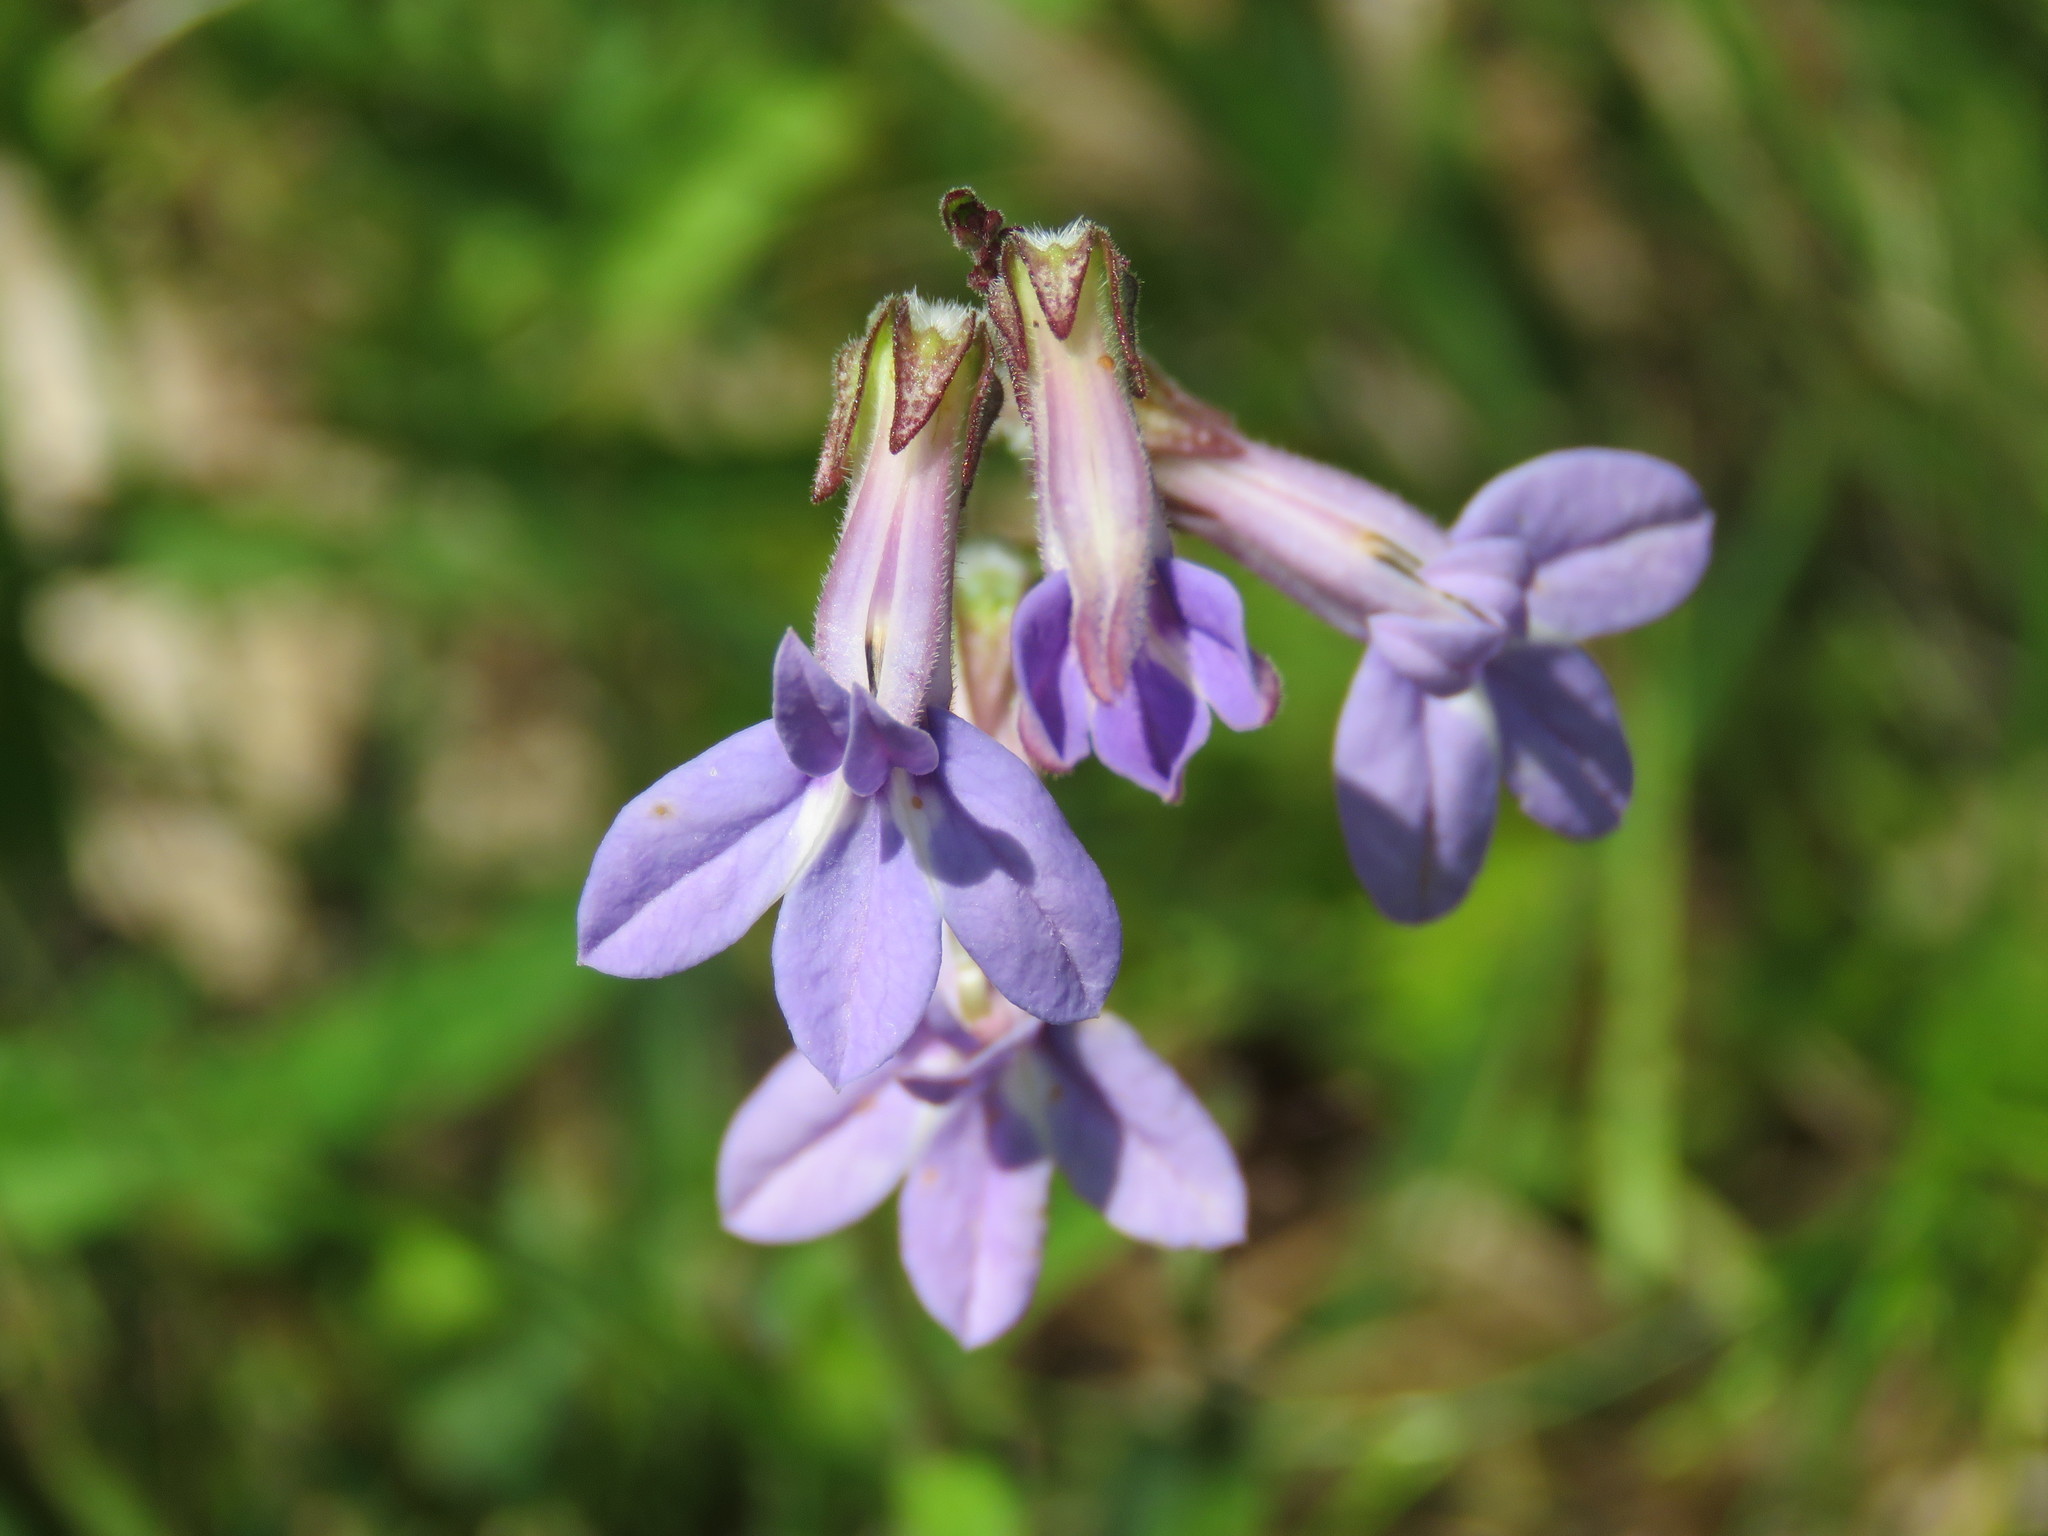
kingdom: Plantae
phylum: Tracheophyta
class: Magnoliopsida
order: Asterales
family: Campanulaceae
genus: Lobelia
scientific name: Lobelia reverchonii
